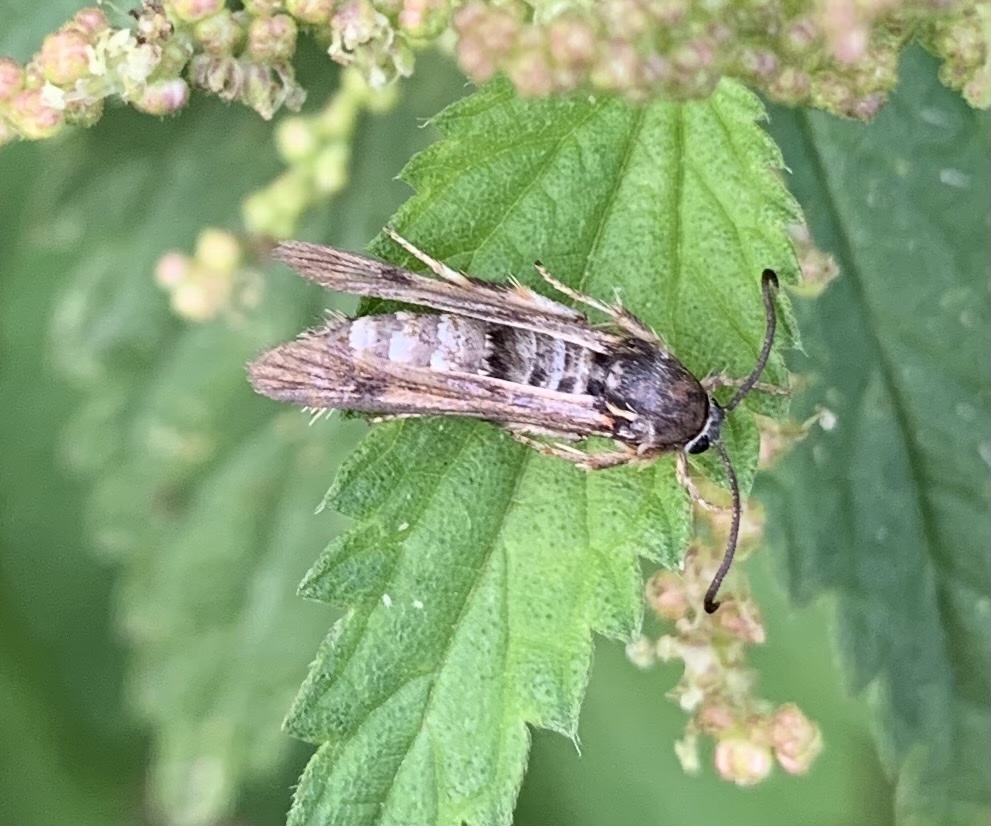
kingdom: Animalia
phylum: Arthropoda
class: Insecta
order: Lepidoptera
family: Sesiidae
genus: Pennisetia
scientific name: Pennisetia hylaeiformis
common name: Raspberry clearwing
